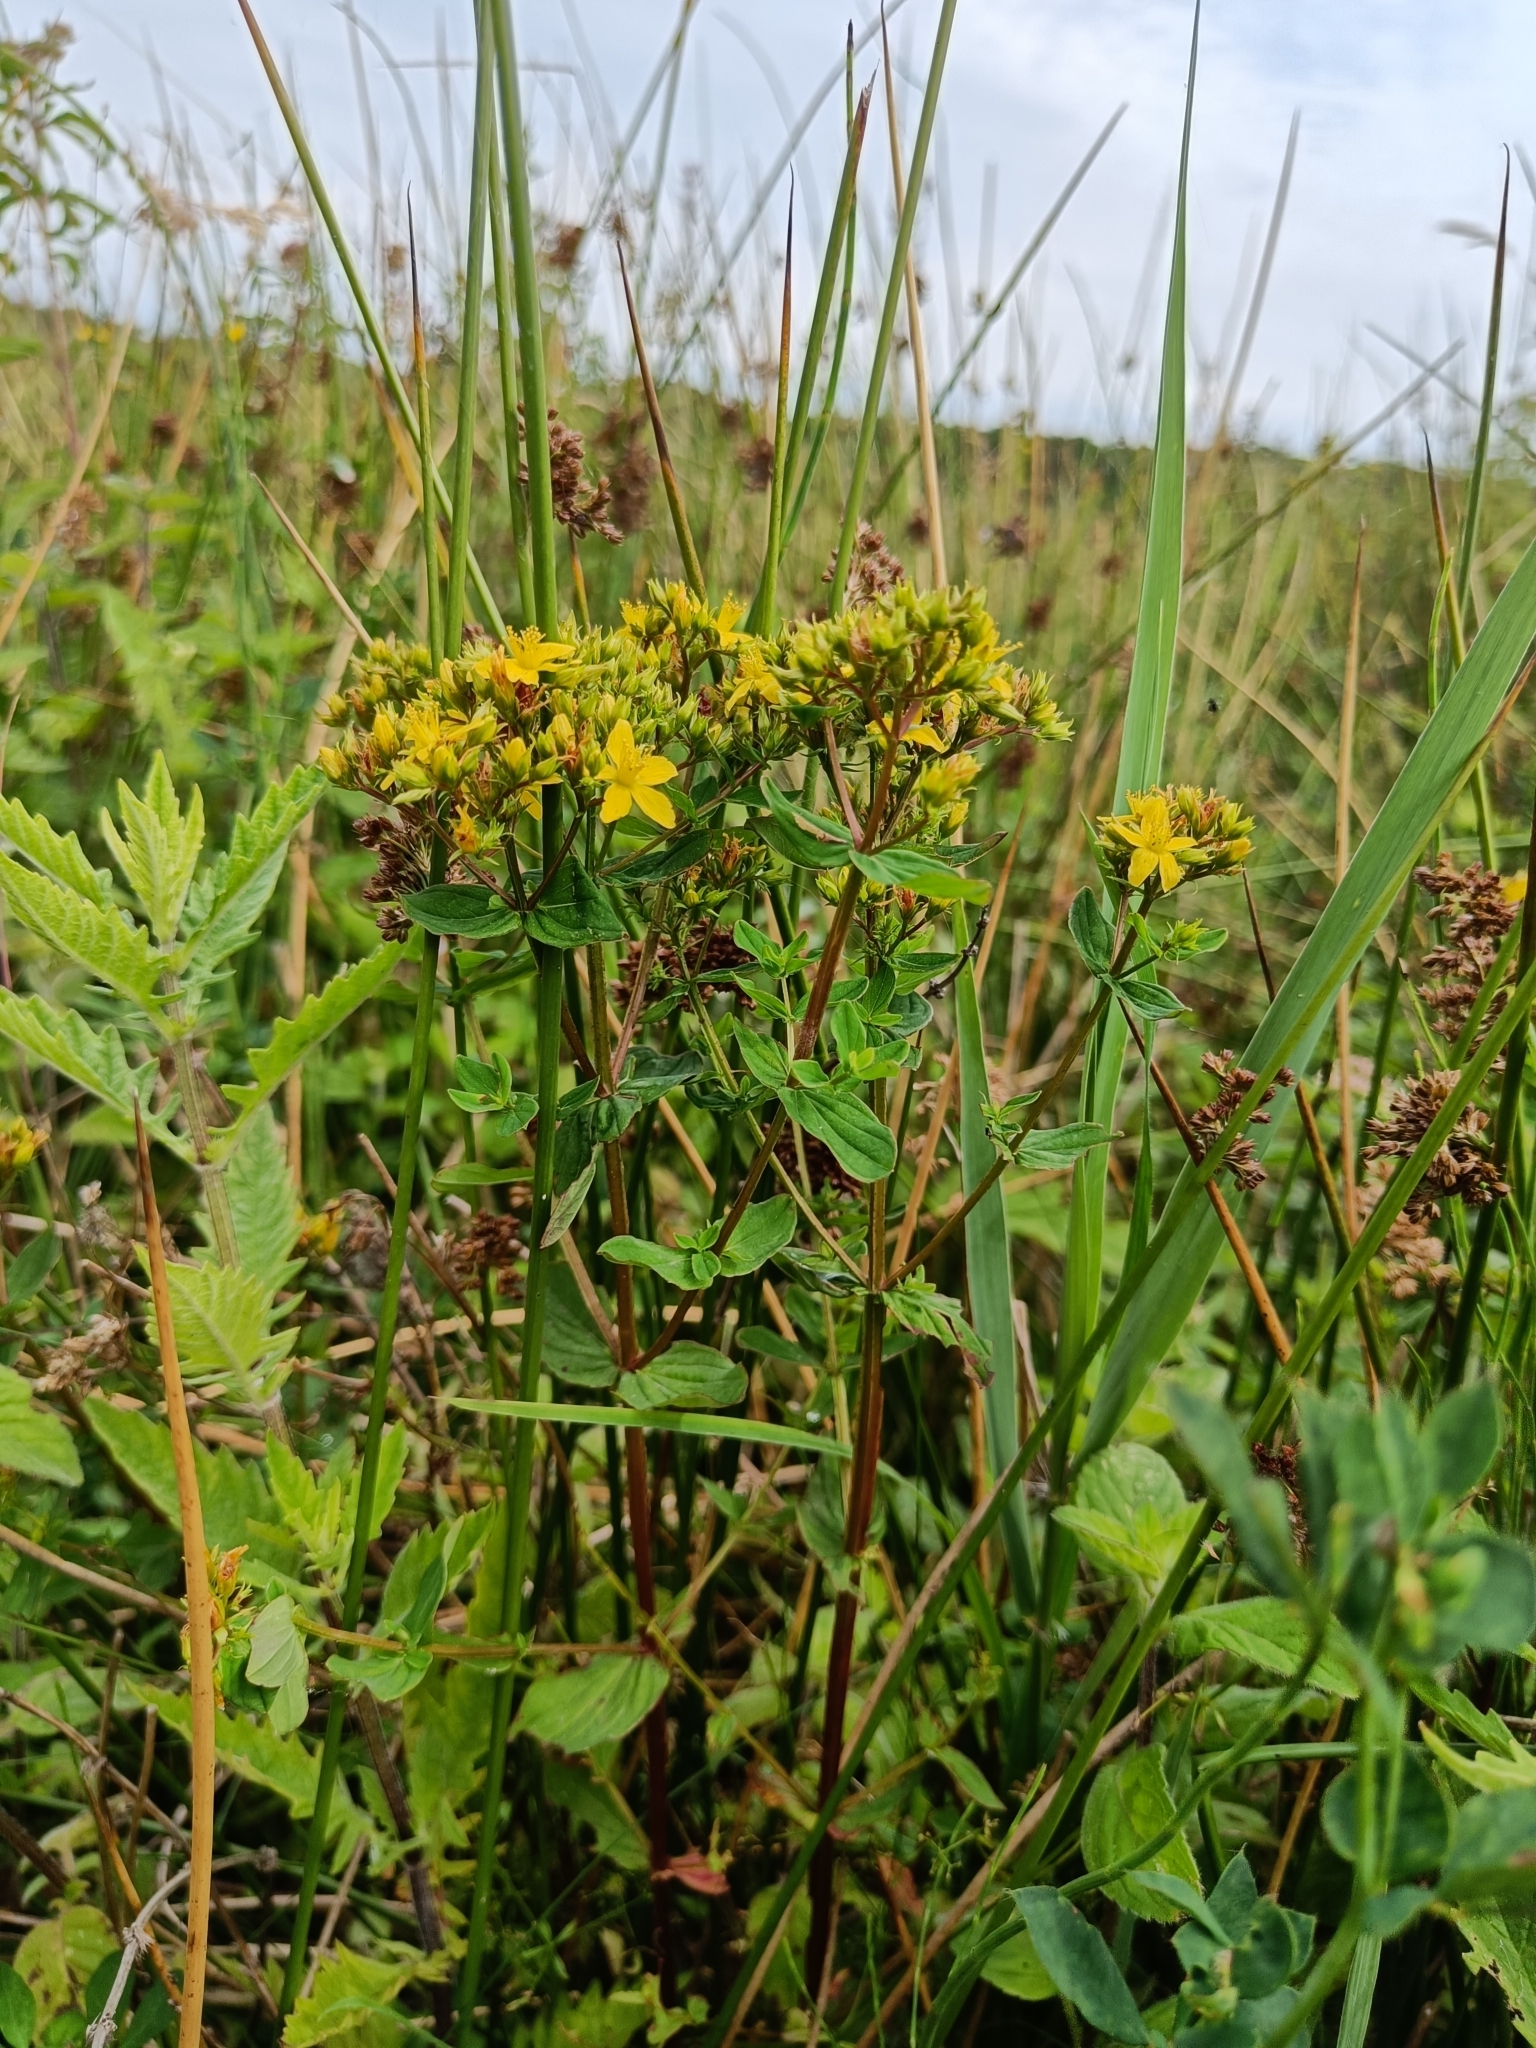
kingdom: Plantae
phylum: Tracheophyta
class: Magnoliopsida
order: Malpighiales
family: Hypericaceae
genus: Hypericum
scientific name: Hypericum tetrapterum
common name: Square-stalked st. john's-wort
